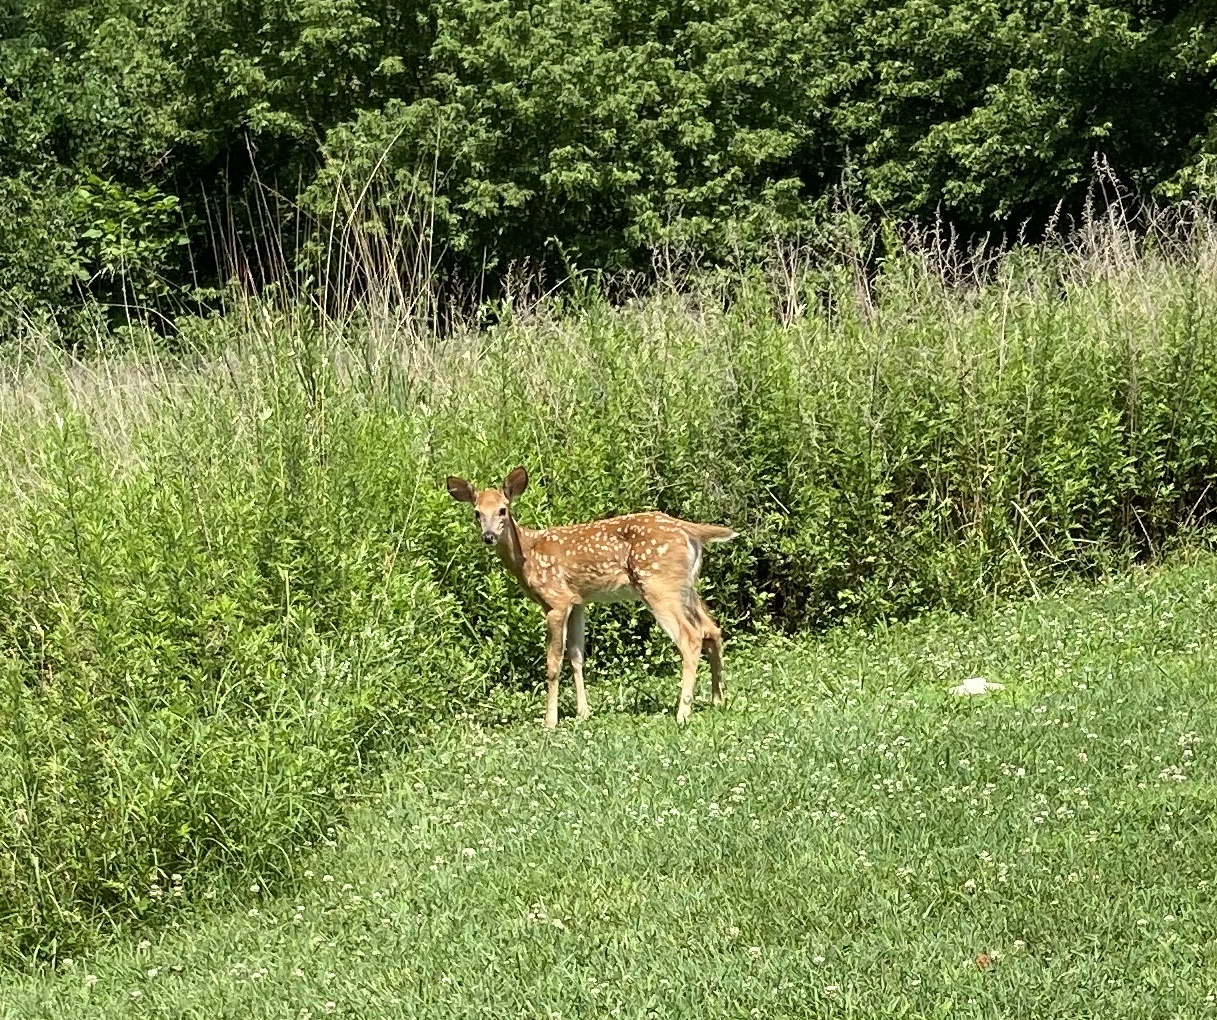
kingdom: Animalia
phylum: Chordata
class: Mammalia
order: Artiodactyla
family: Cervidae
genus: Odocoileus
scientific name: Odocoileus virginianus
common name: White-tailed deer
